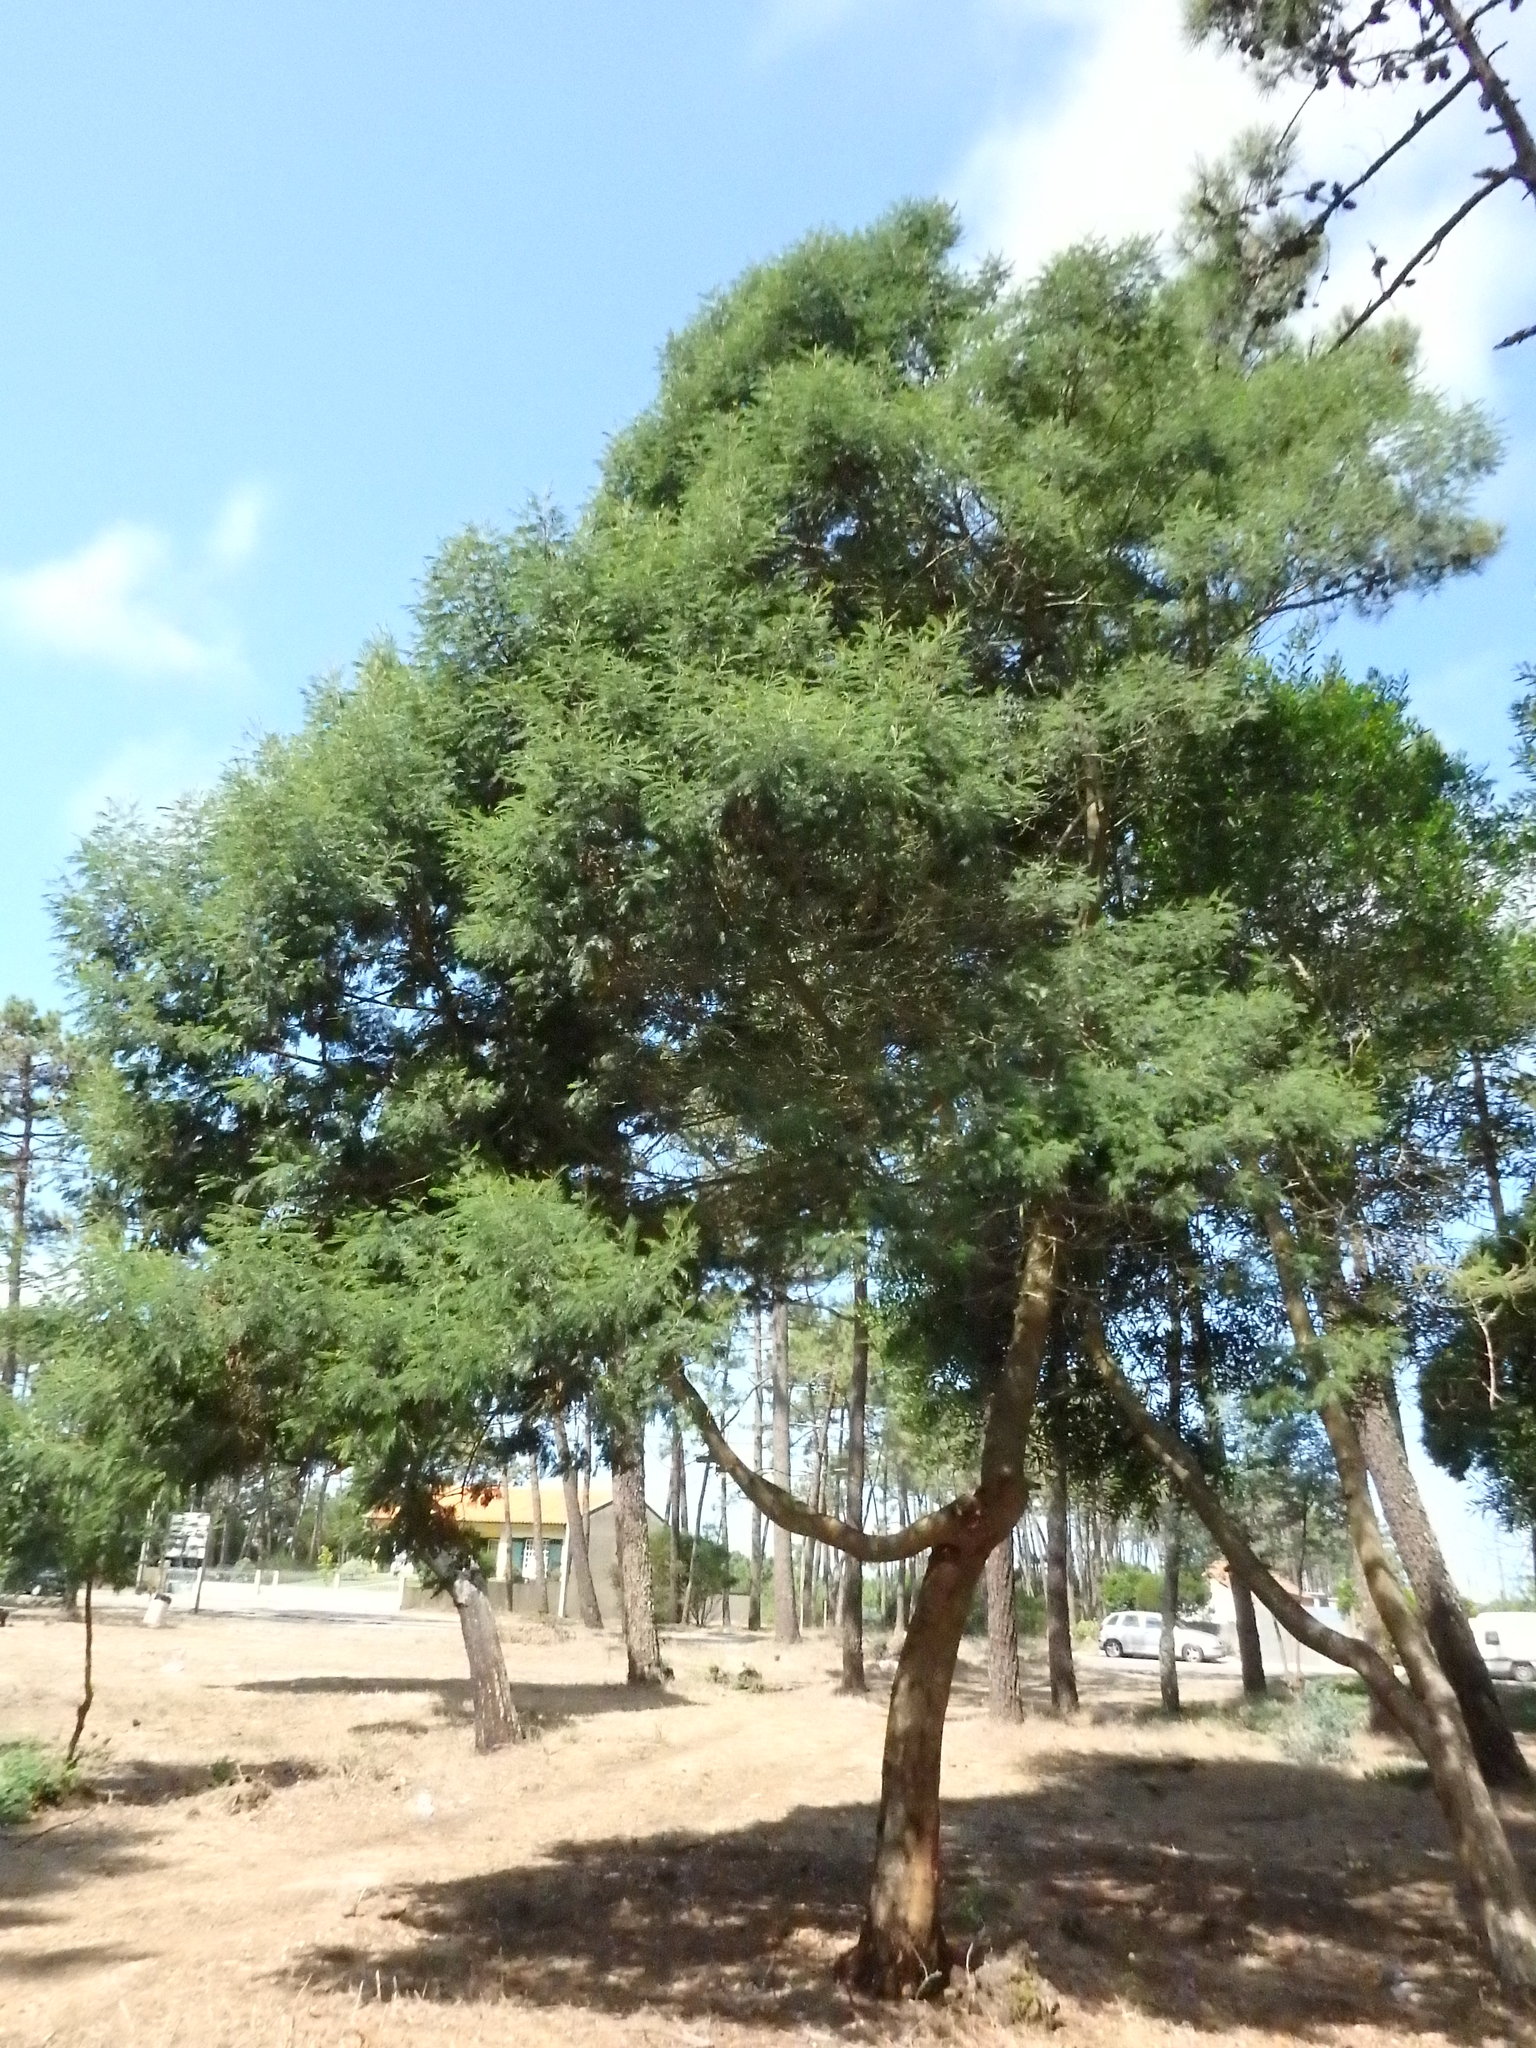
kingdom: Plantae
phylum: Tracheophyta
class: Magnoliopsida
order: Fabales
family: Fabaceae
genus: Acacia
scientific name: Acacia mearnsii
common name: Black wattle
